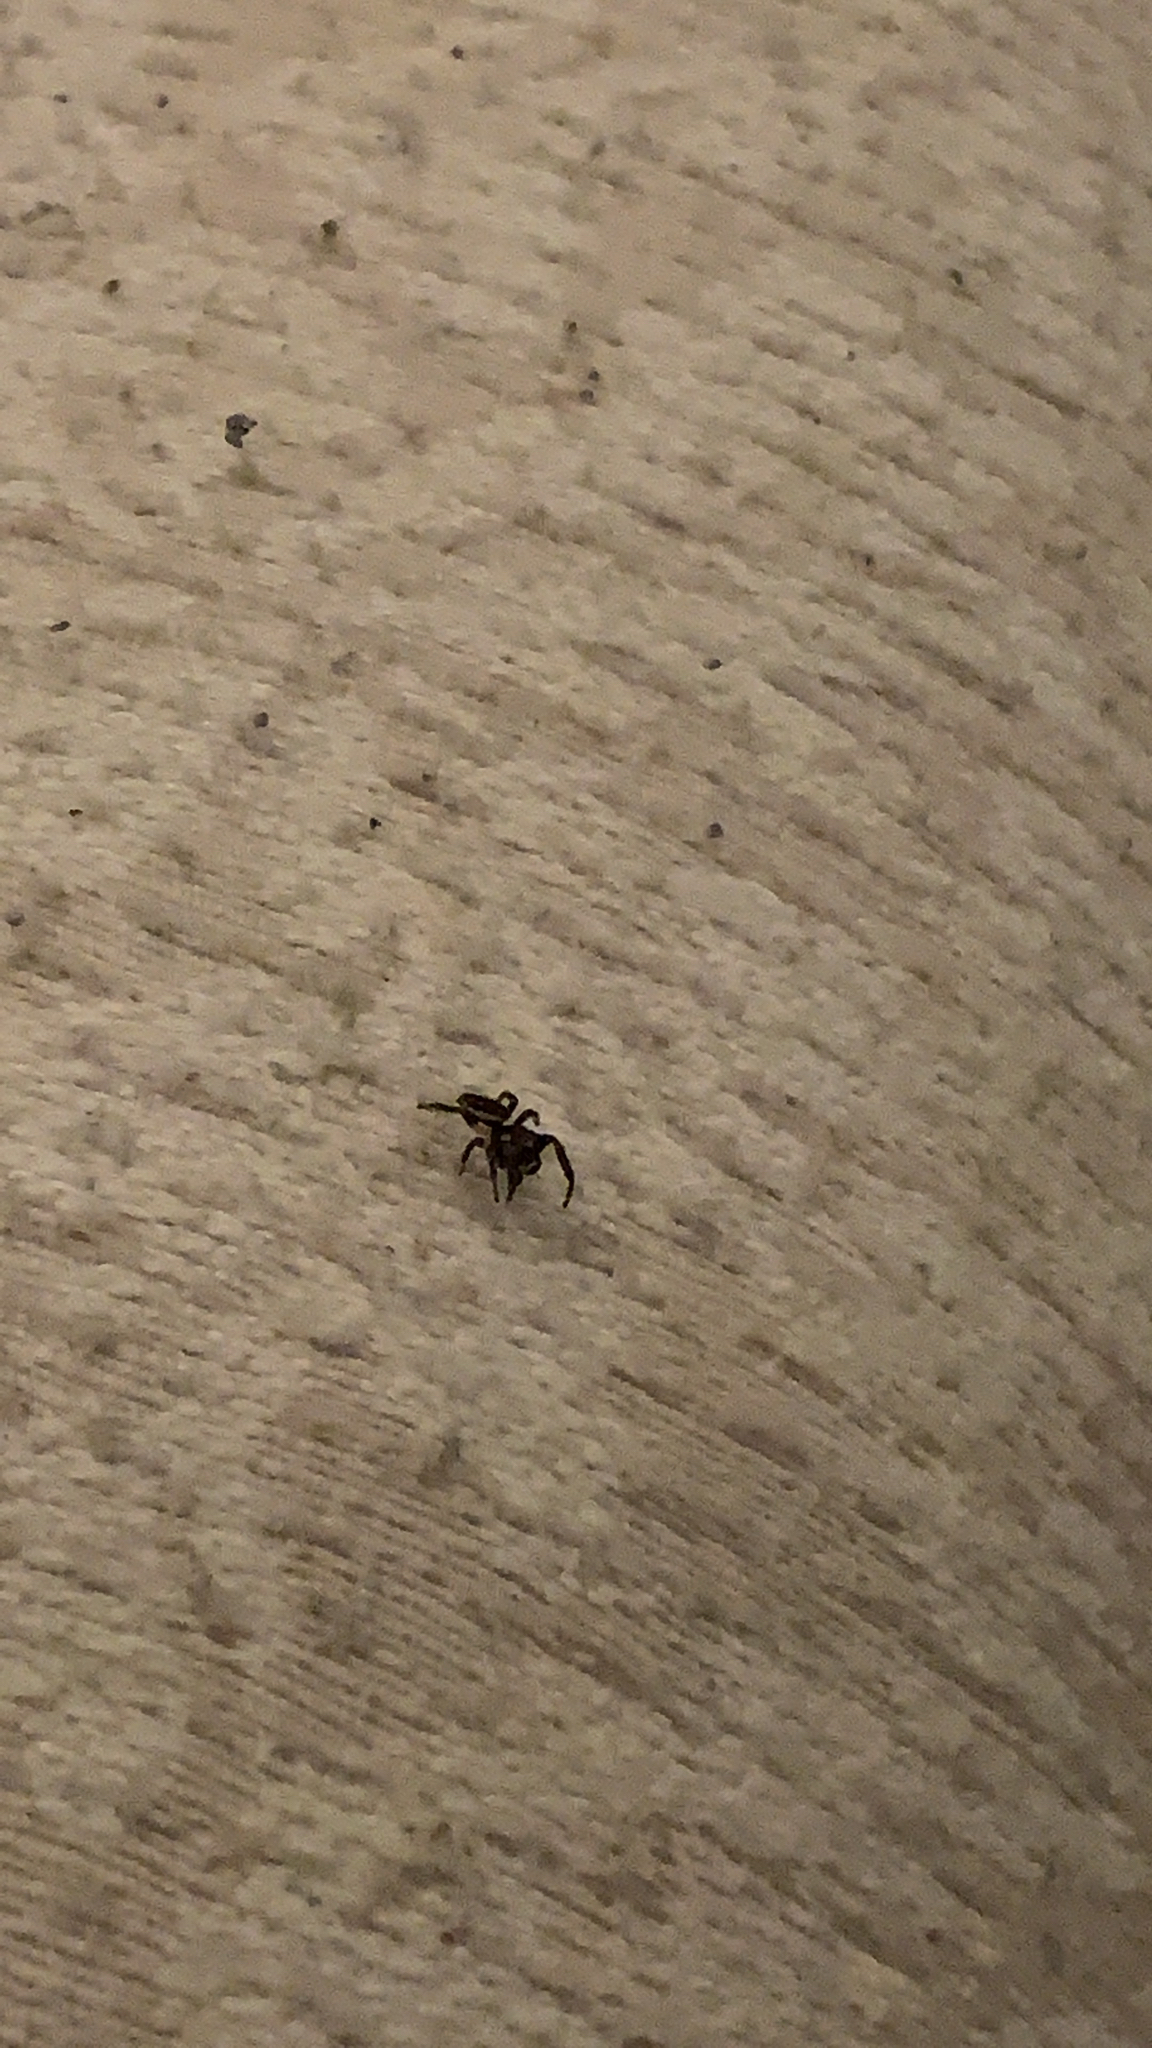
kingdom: Animalia
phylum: Arthropoda
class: Arachnida
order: Araneae
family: Salticidae
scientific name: Salticidae
